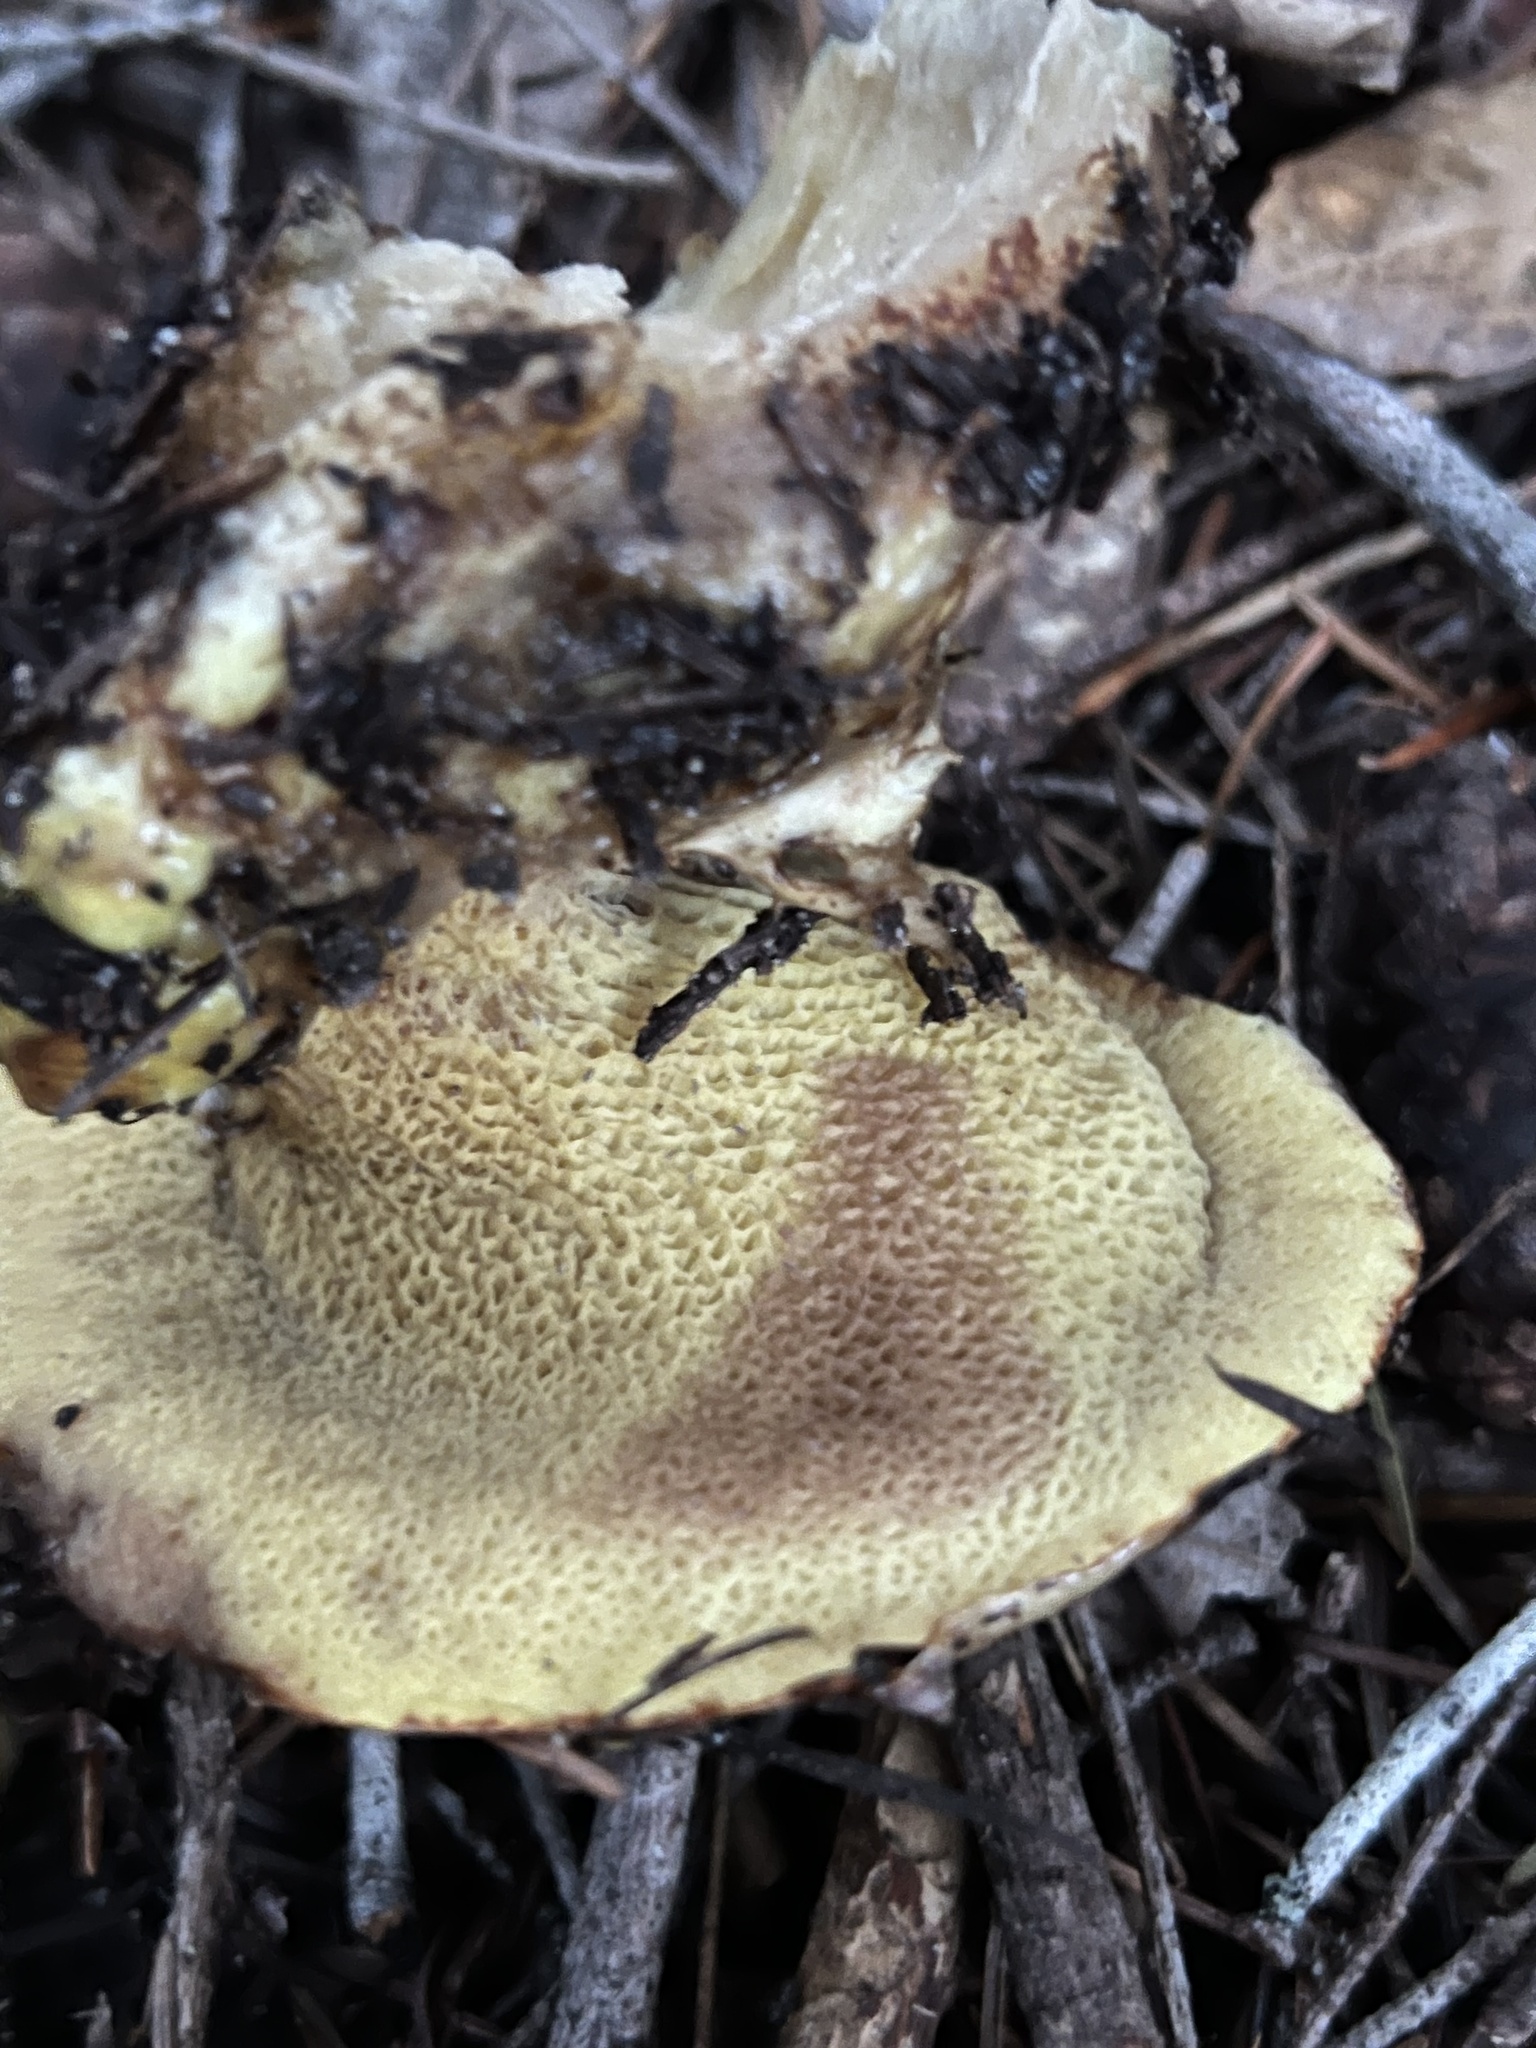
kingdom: Fungi
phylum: Basidiomycota
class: Agaricomycetes
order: Boletales
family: Suillaceae
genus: Suillus
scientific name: Suillus caerulescens
